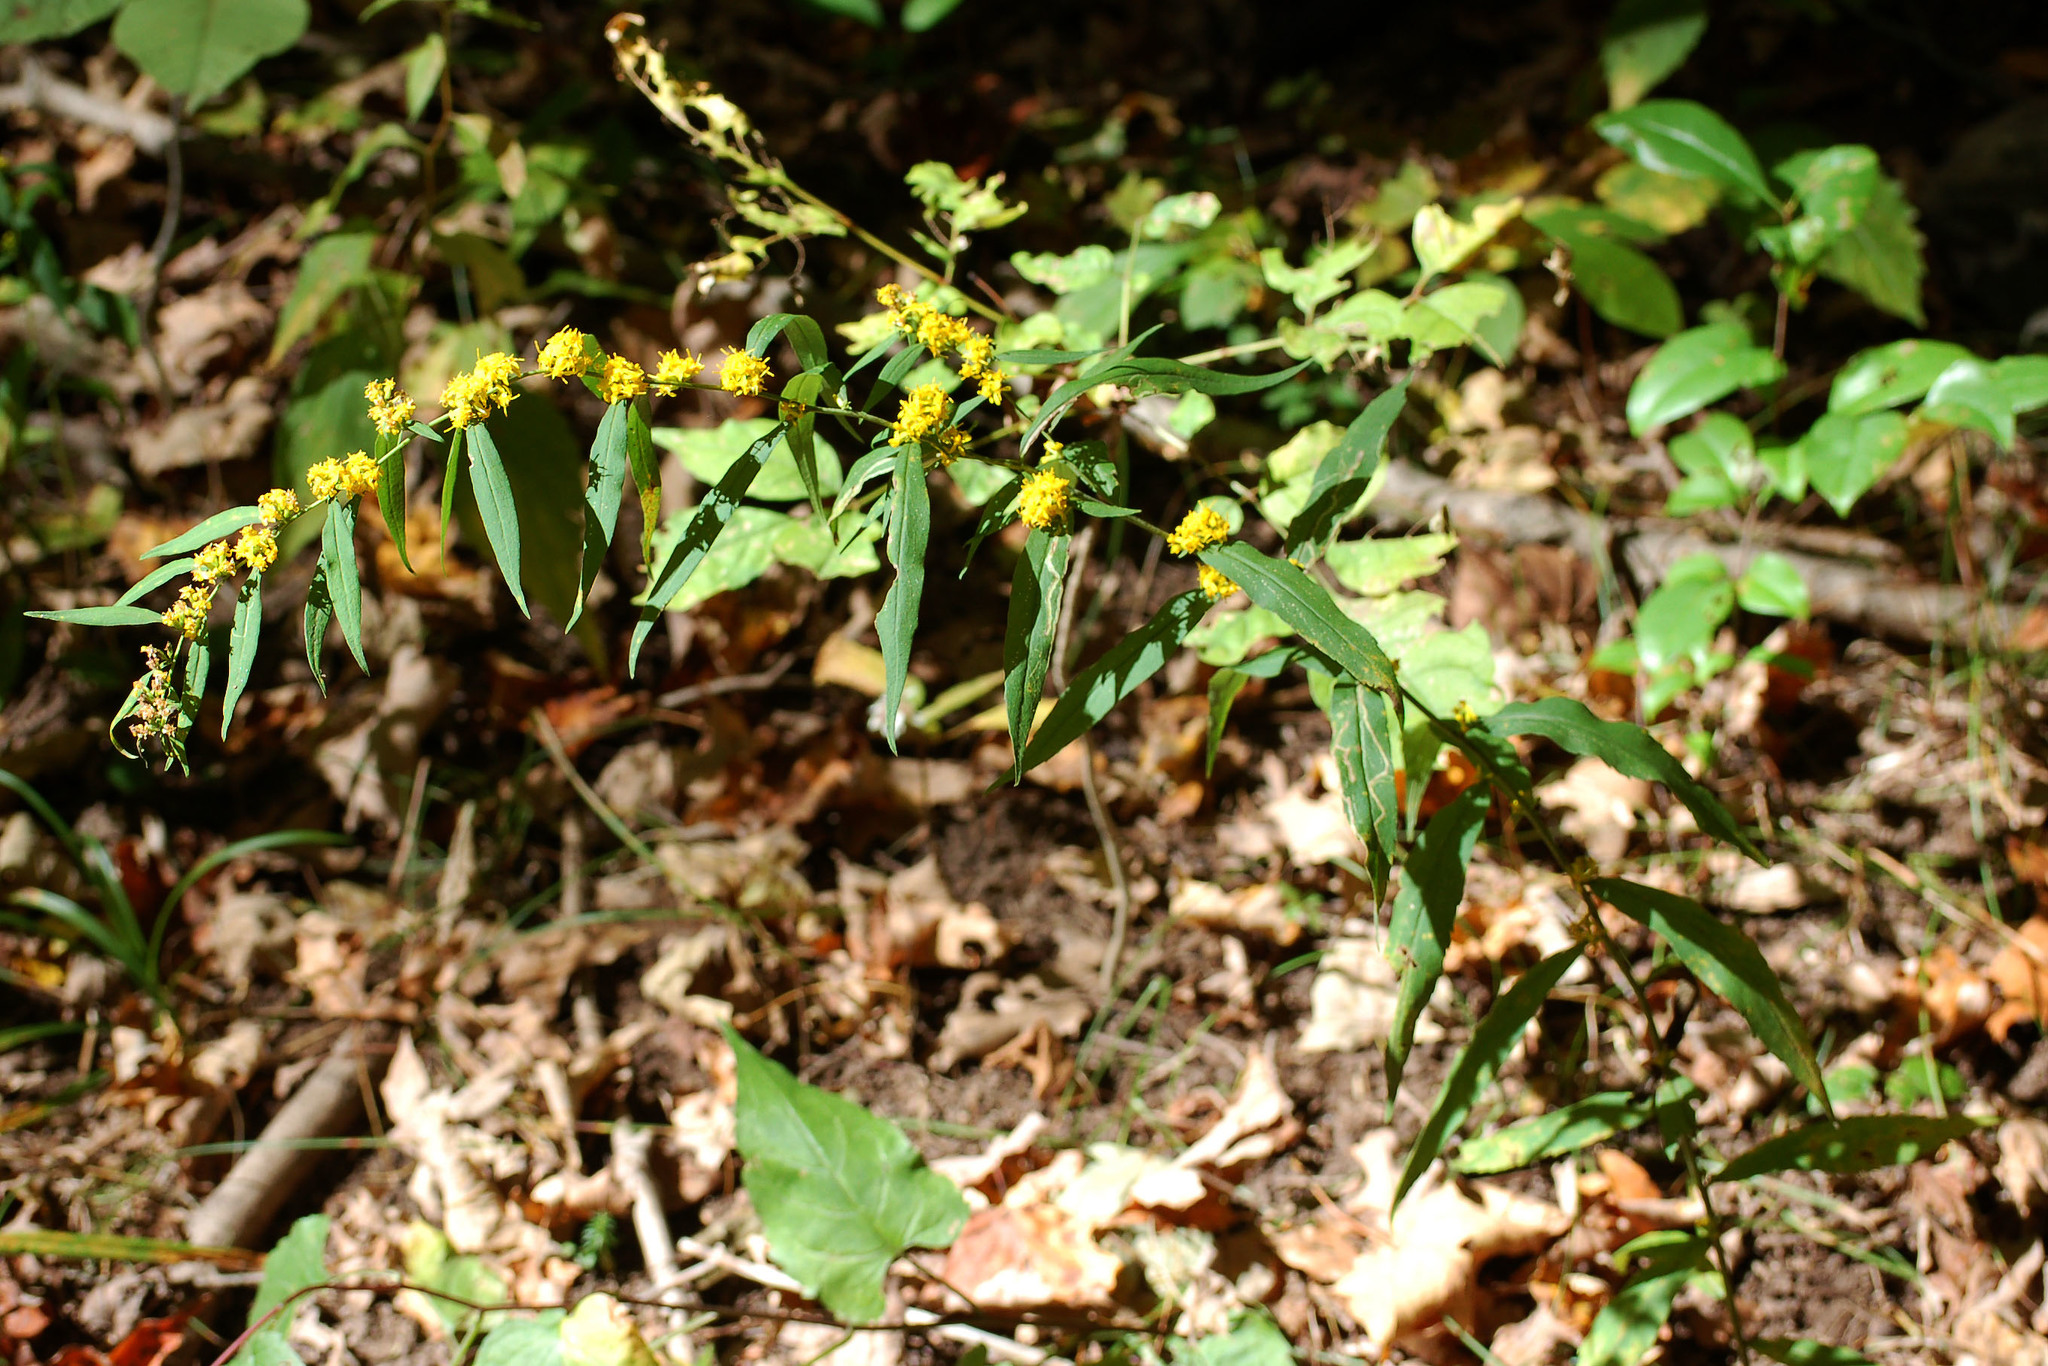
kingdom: Plantae
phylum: Tracheophyta
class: Magnoliopsida
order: Asterales
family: Asteraceae
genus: Solidago
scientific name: Solidago caesia
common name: Woodland goldenrod
